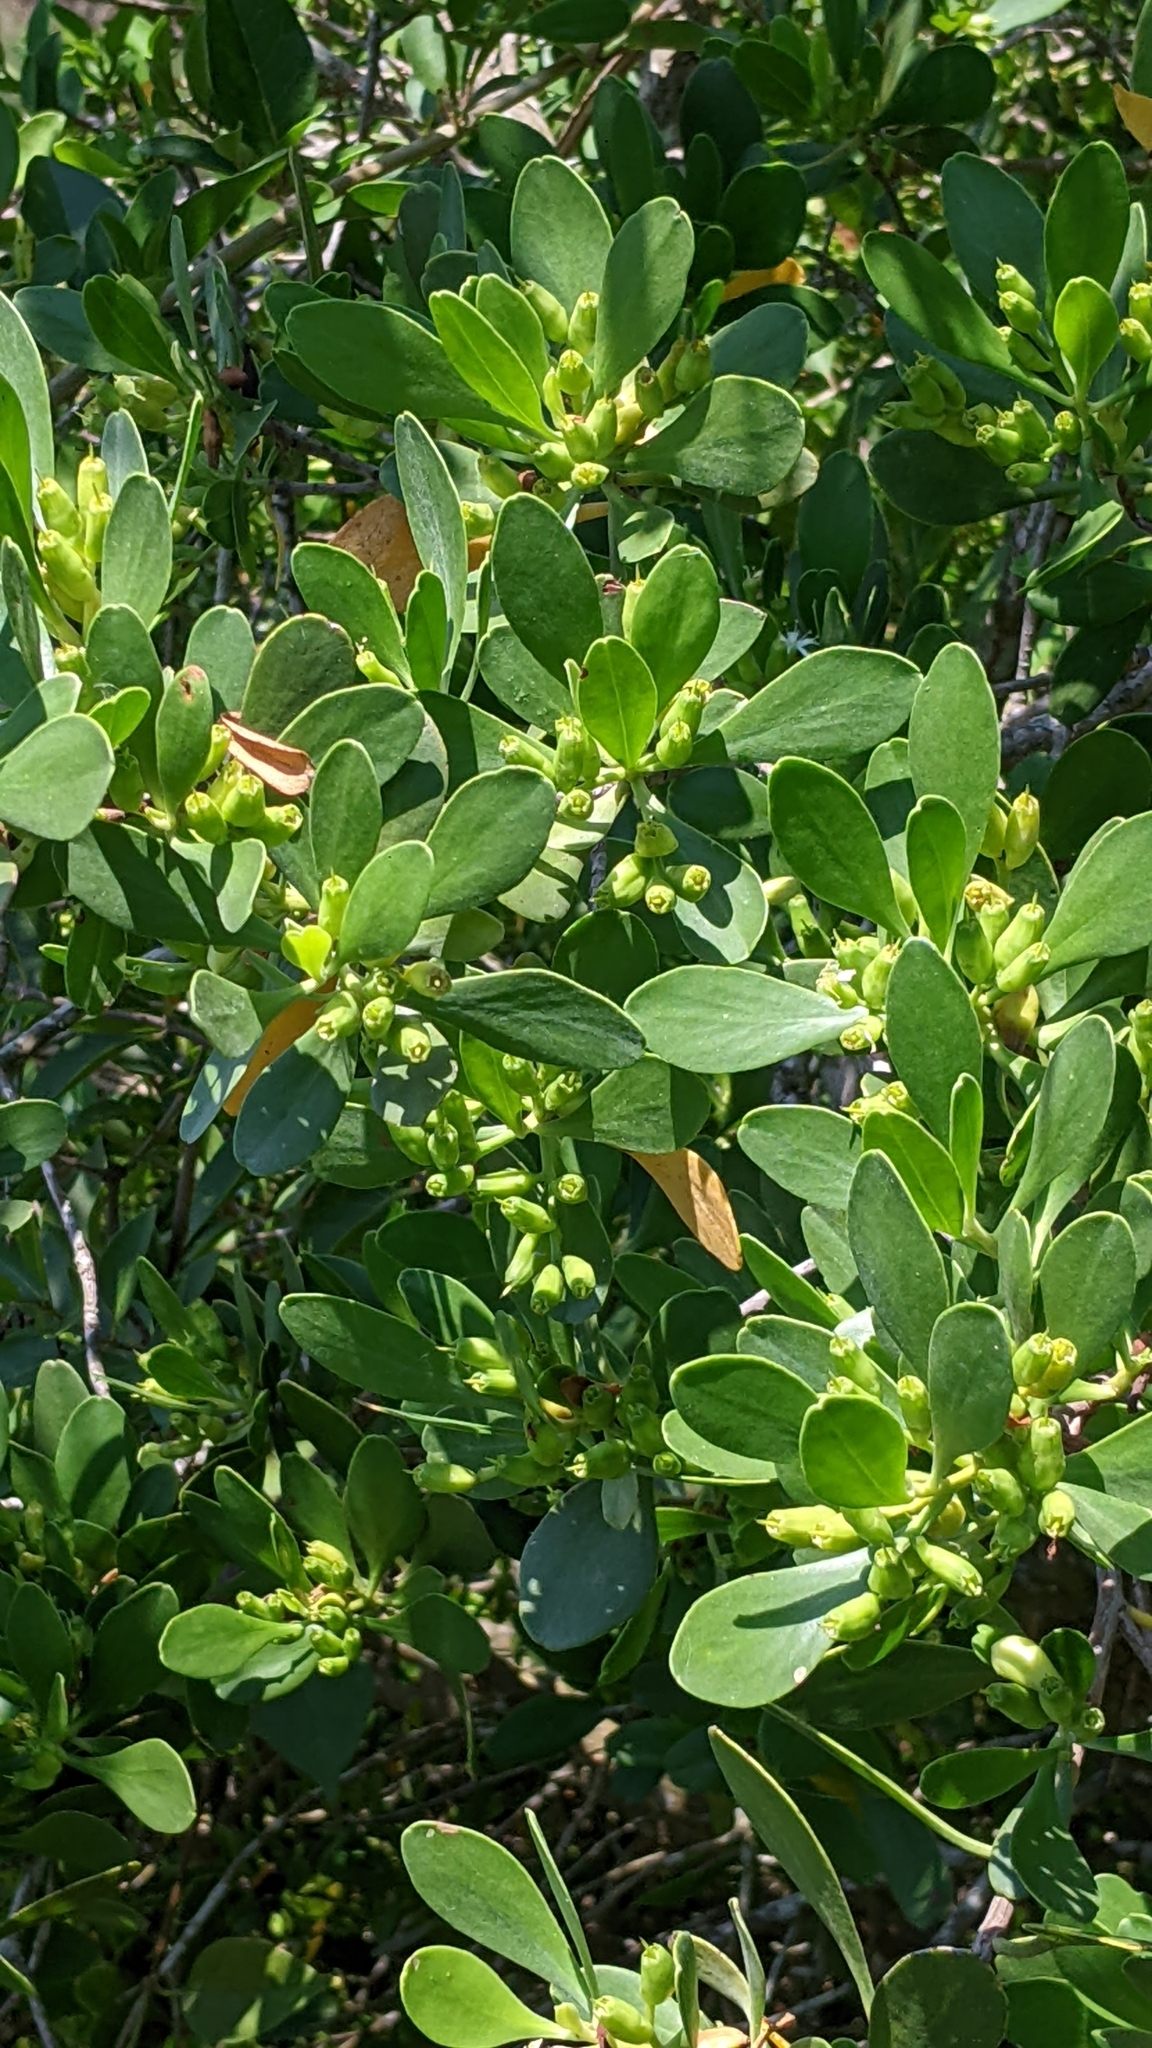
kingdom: Plantae
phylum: Tracheophyta
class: Magnoliopsida
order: Myrtales
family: Combretaceae
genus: Lumnitzera
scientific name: Lumnitzera racemosa
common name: White-flowered black mangrove
